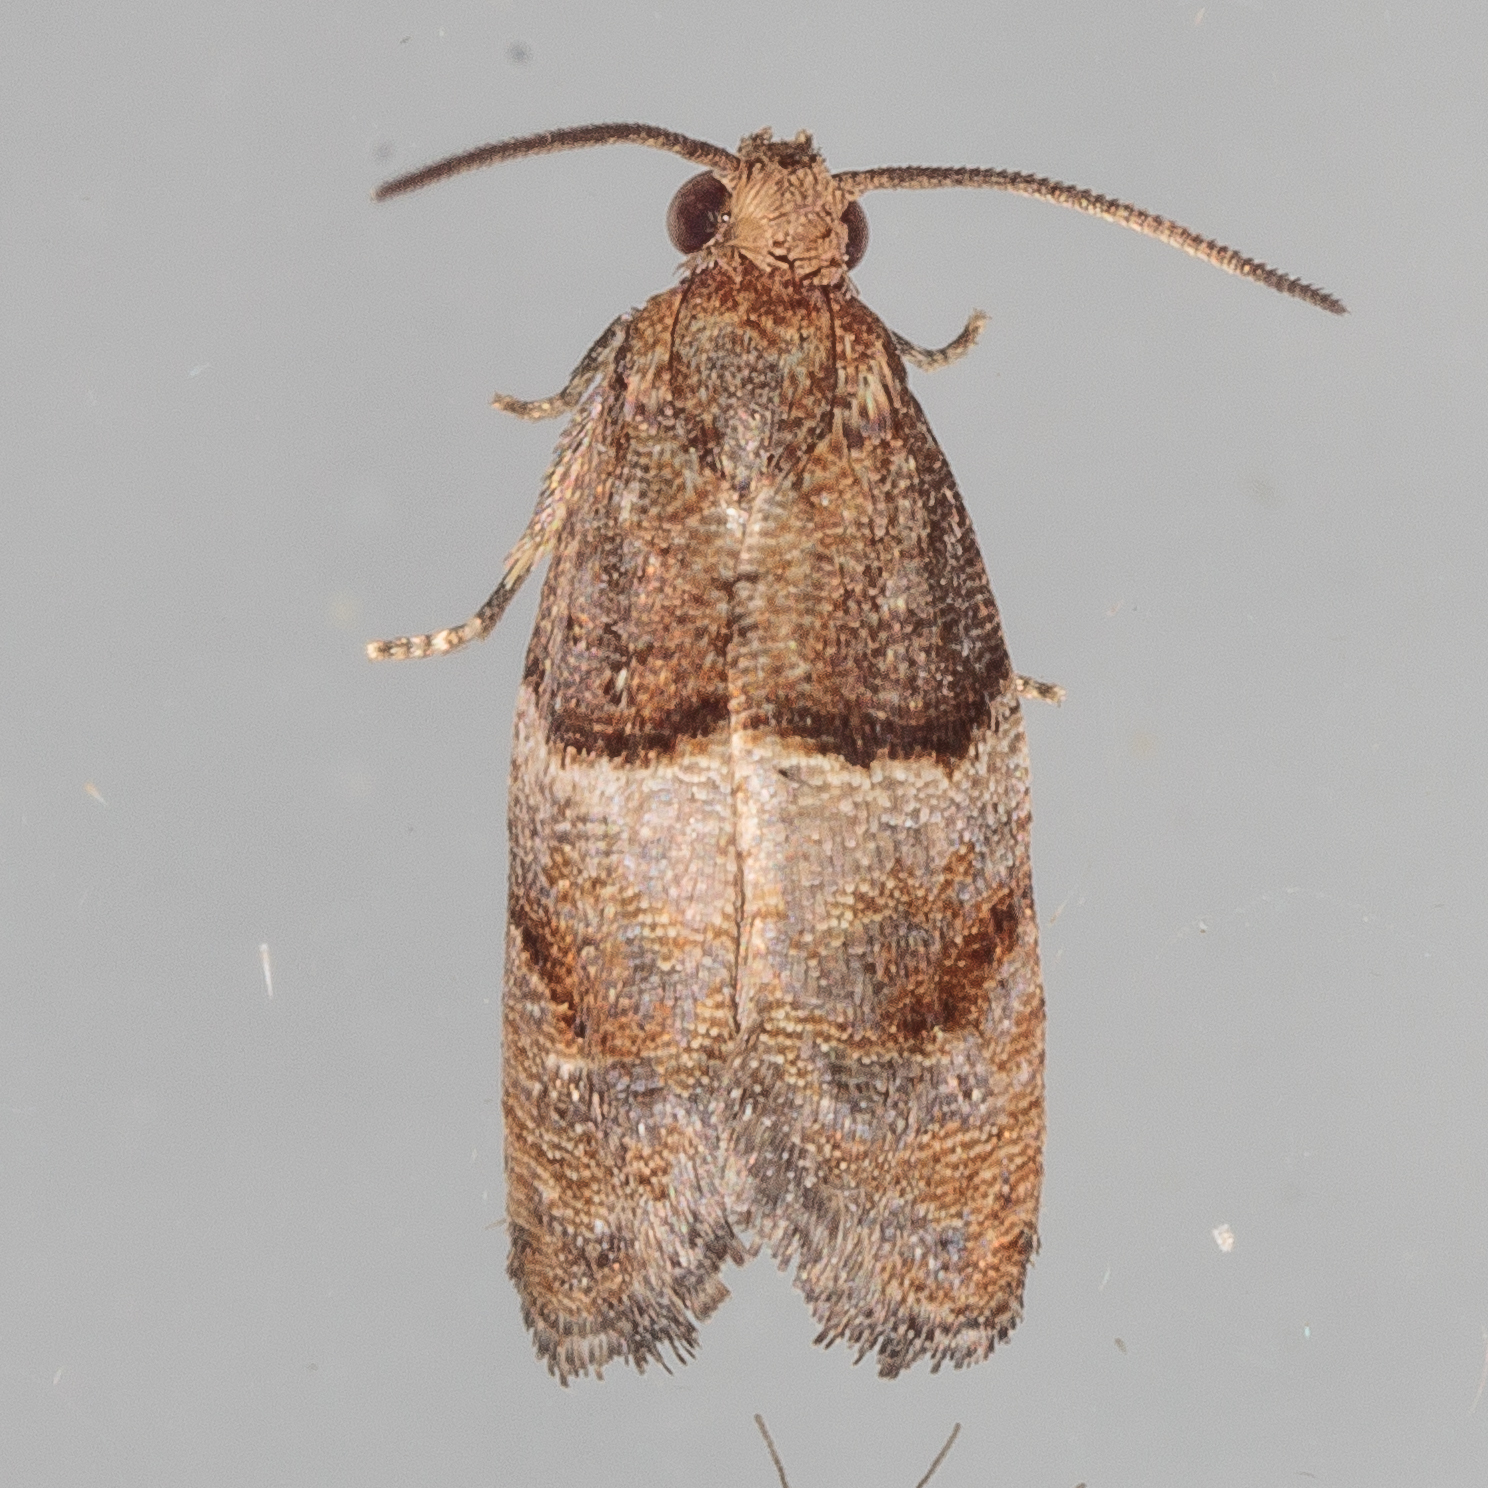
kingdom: Animalia
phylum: Arthropoda
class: Insecta
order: Lepidoptera
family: Tortricidae
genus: Larisa
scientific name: Larisa subsolana
